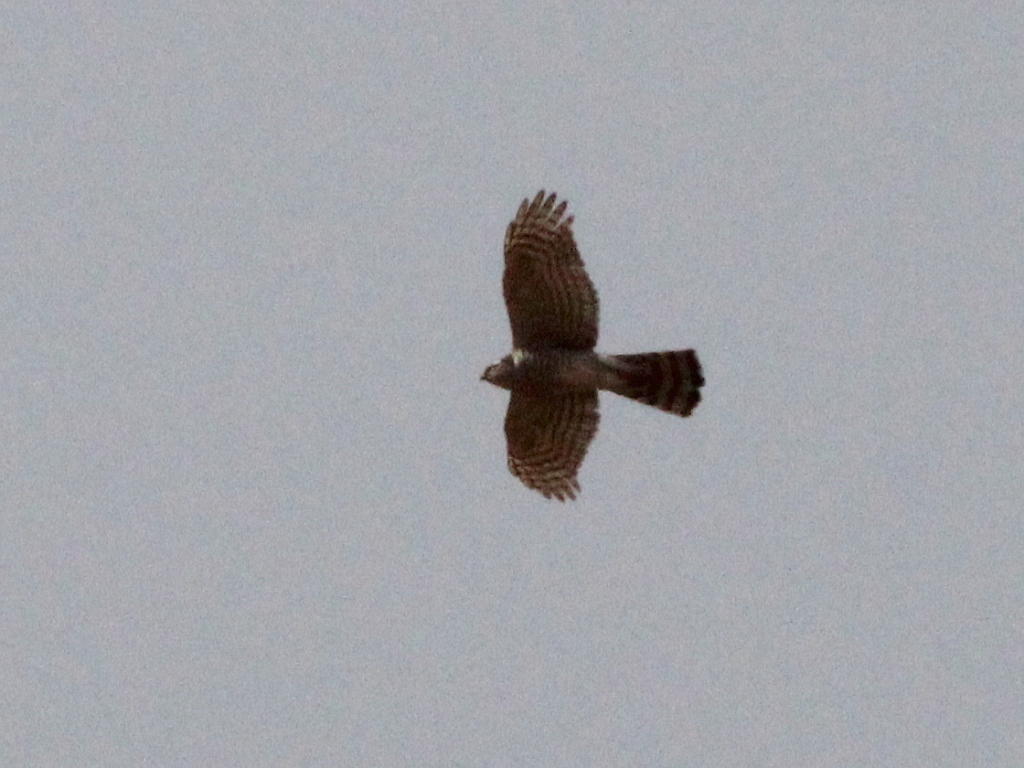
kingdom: Animalia
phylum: Chordata
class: Aves
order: Accipitriformes
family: Accipitridae
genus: Accipiter
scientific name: Accipiter nisus
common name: Eurasian sparrowhawk
